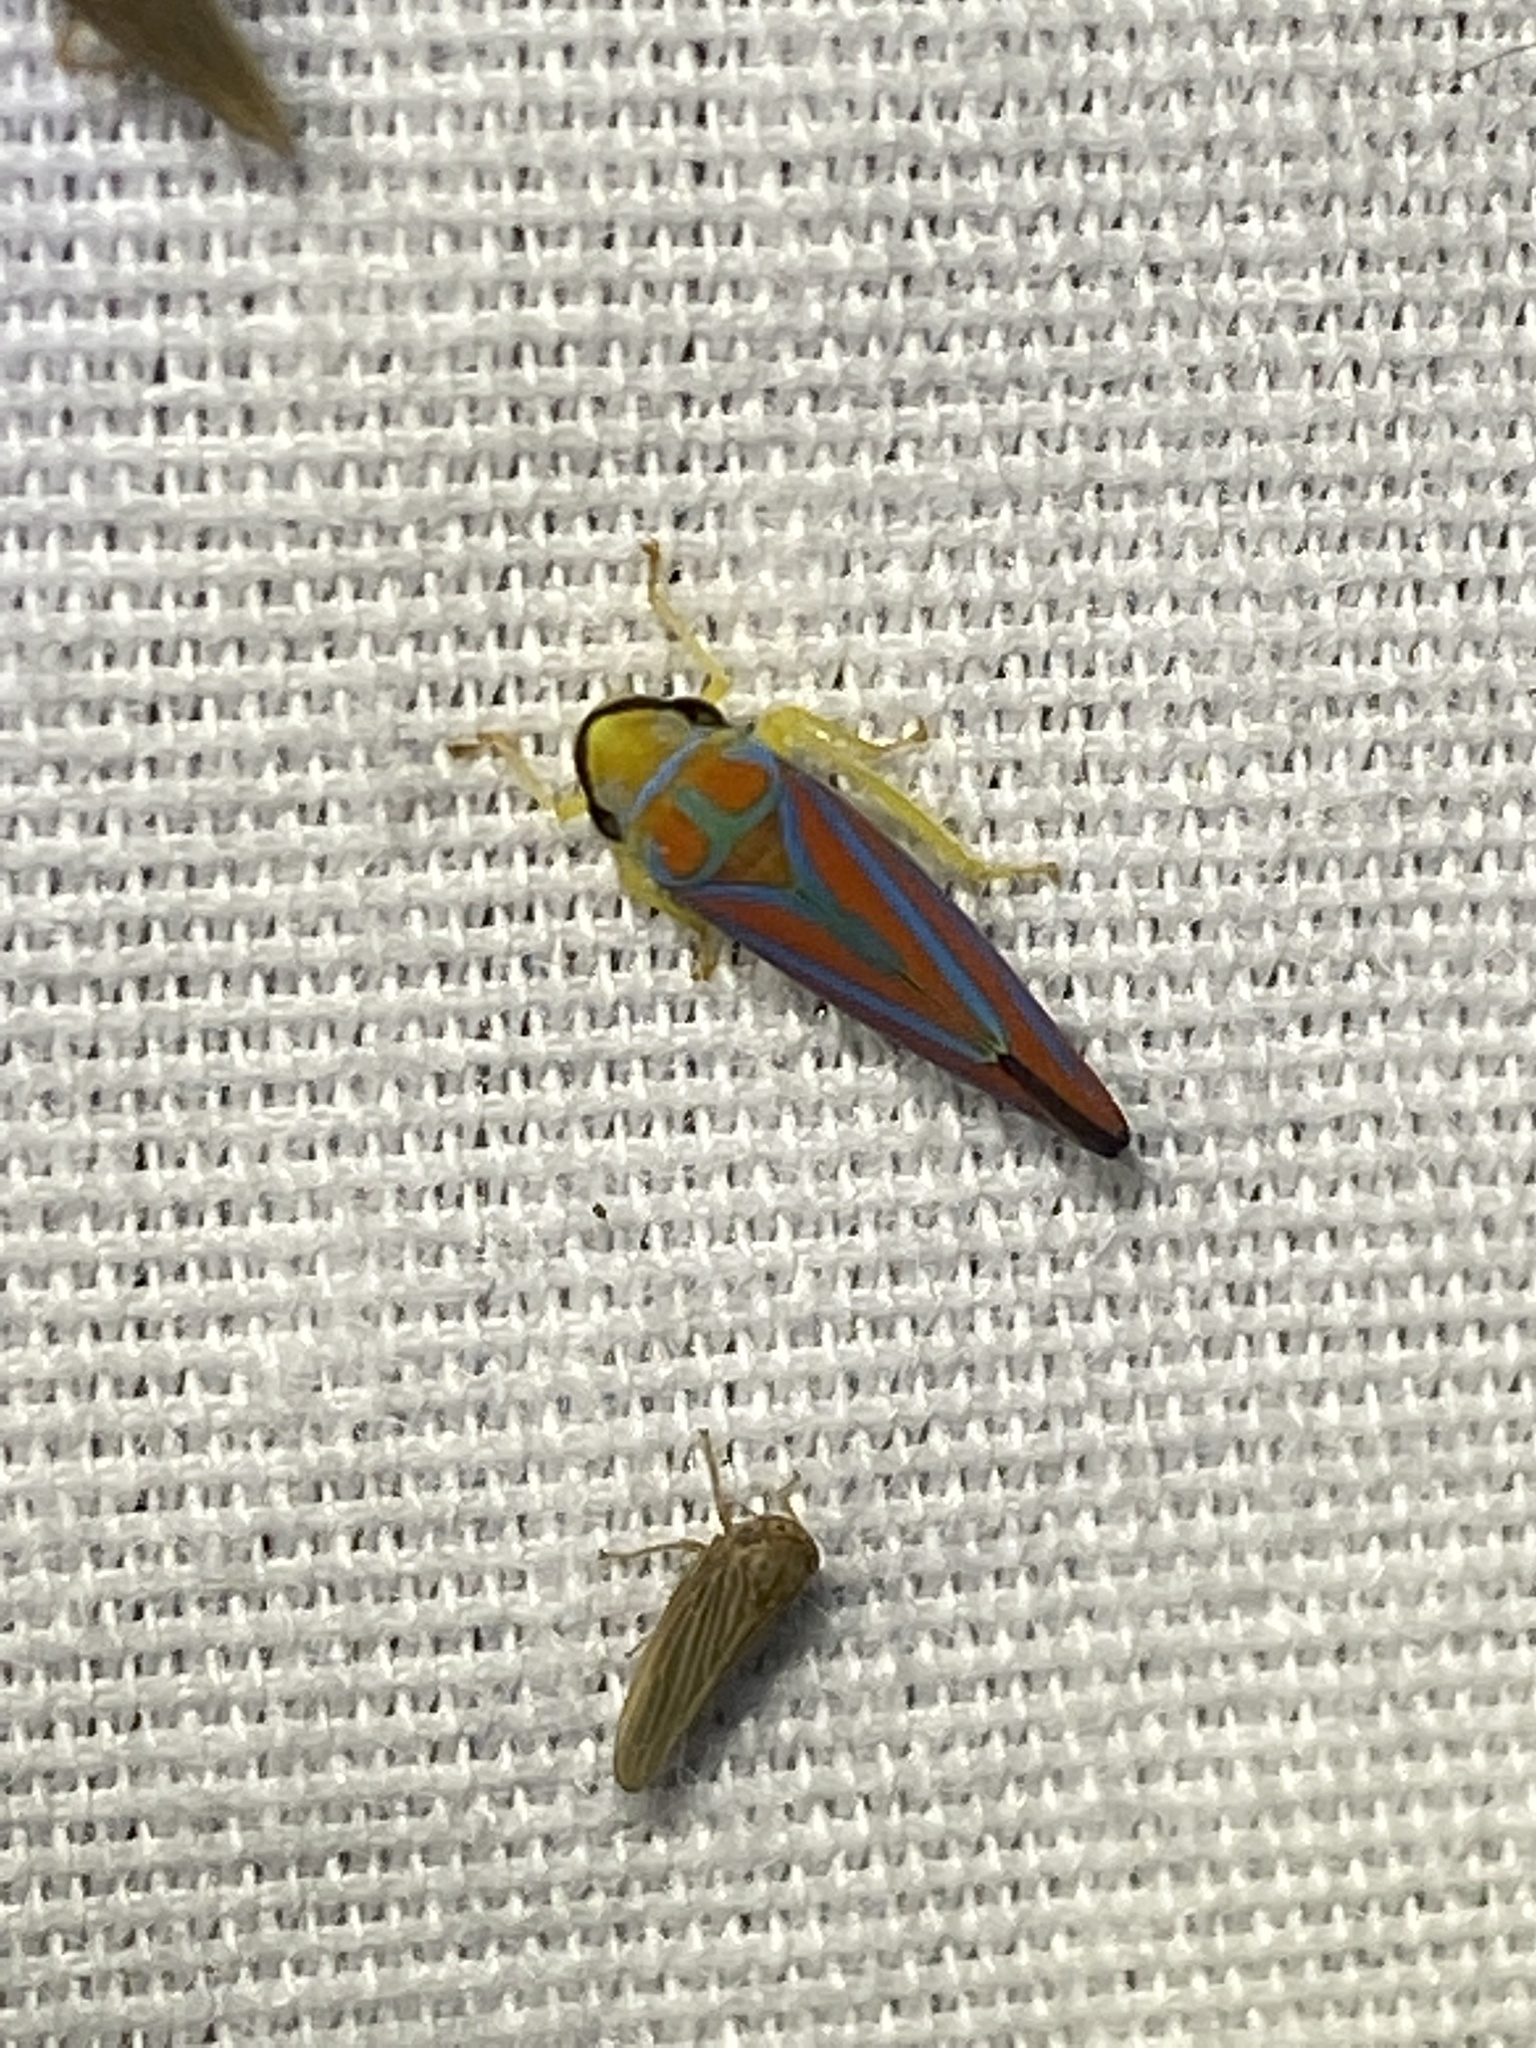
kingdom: Animalia
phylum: Arthropoda
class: Insecta
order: Hemiptera
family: Cicadellidae
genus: Graphocephala
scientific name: Graphocephala coccinea
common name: Candy-striped leafhopper
